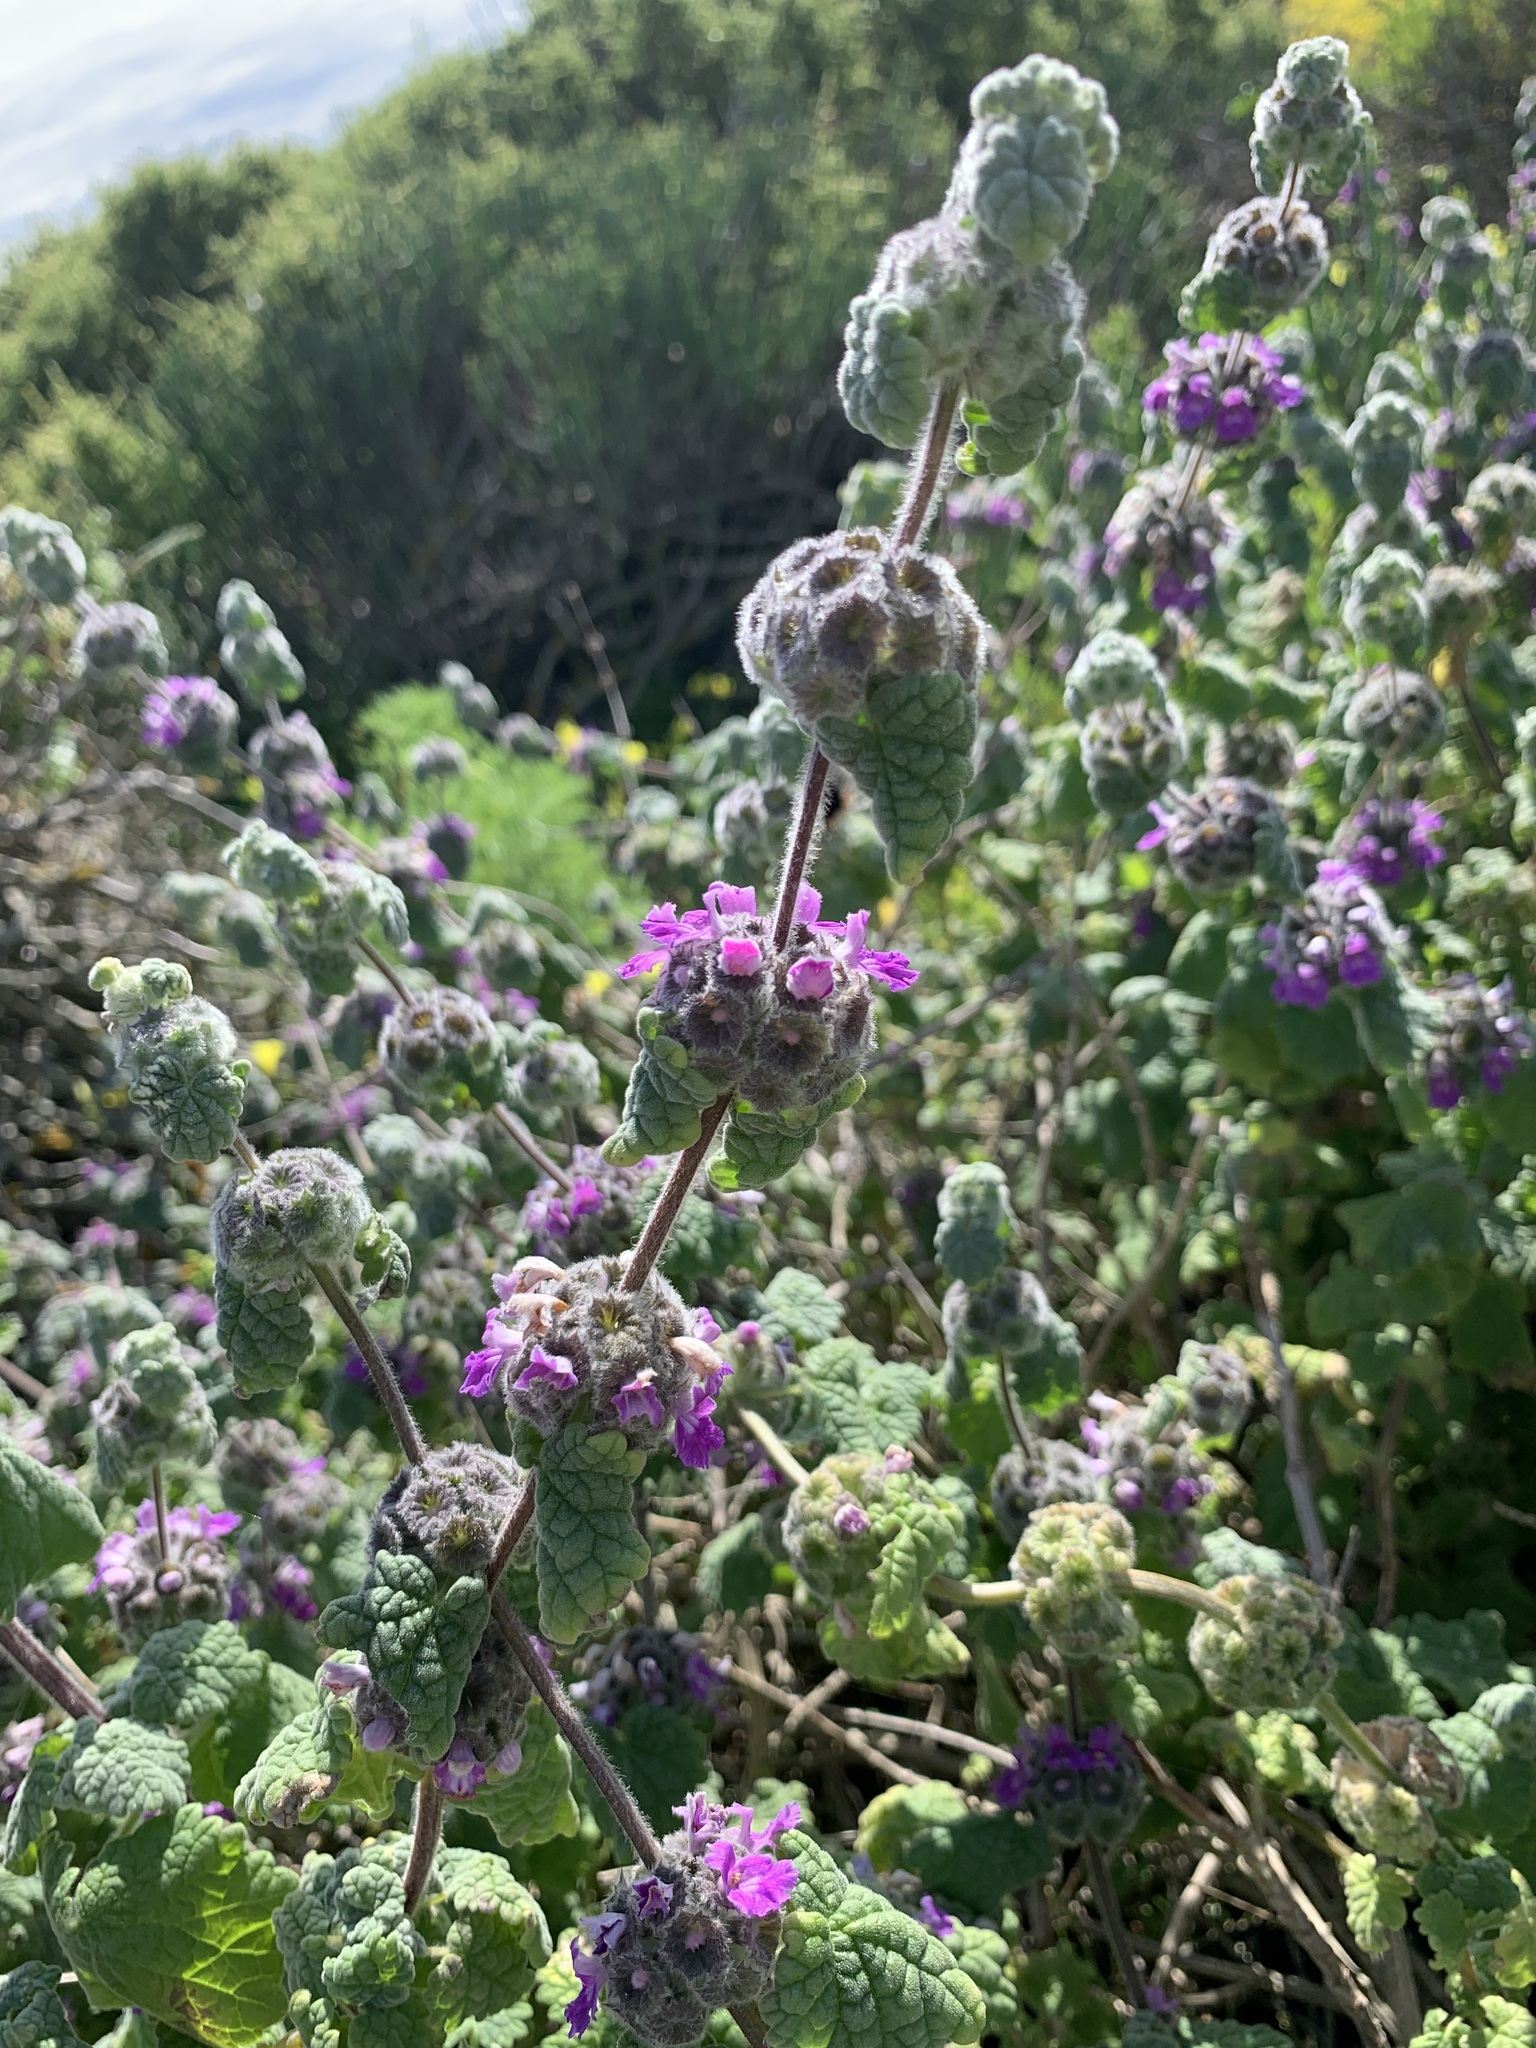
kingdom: Plantae
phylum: Tracheophyta
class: Magnoliopsida
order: Lamiales
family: Lamiaceae
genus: Pseudodictamnus
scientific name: Pseudodictamnus africanus
